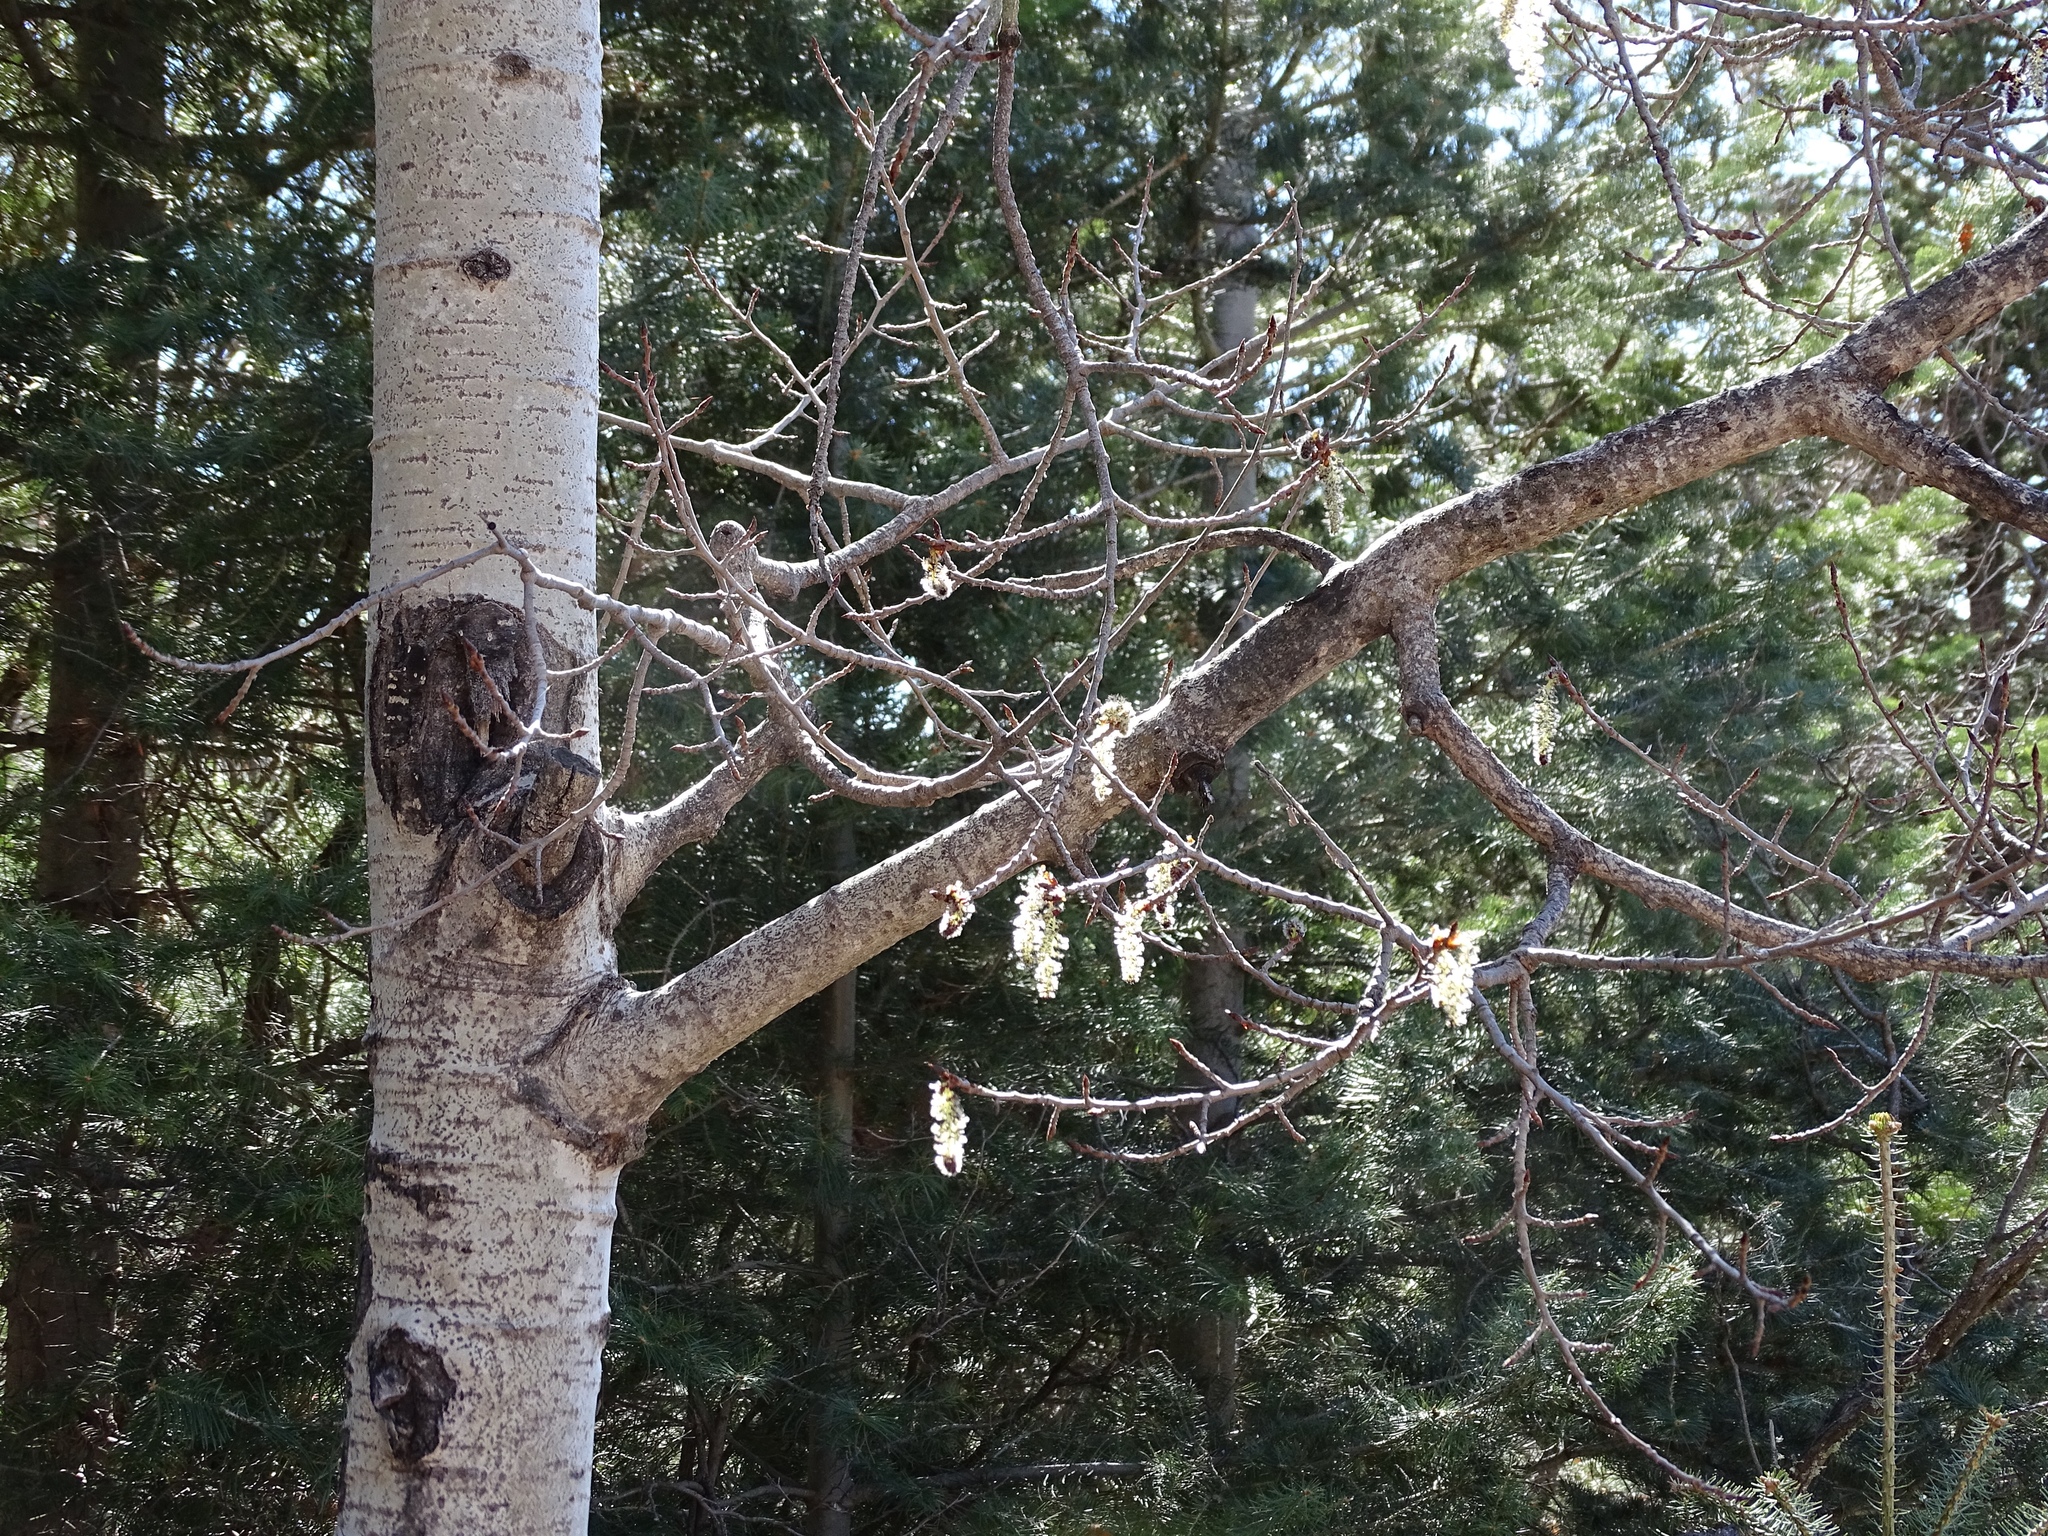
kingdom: Plantae
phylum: Tracheophyta
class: Magnoliopsida
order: Malpighiales
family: Salicaceae
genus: Populus
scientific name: Populus tremuloides
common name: Quaking aspen
